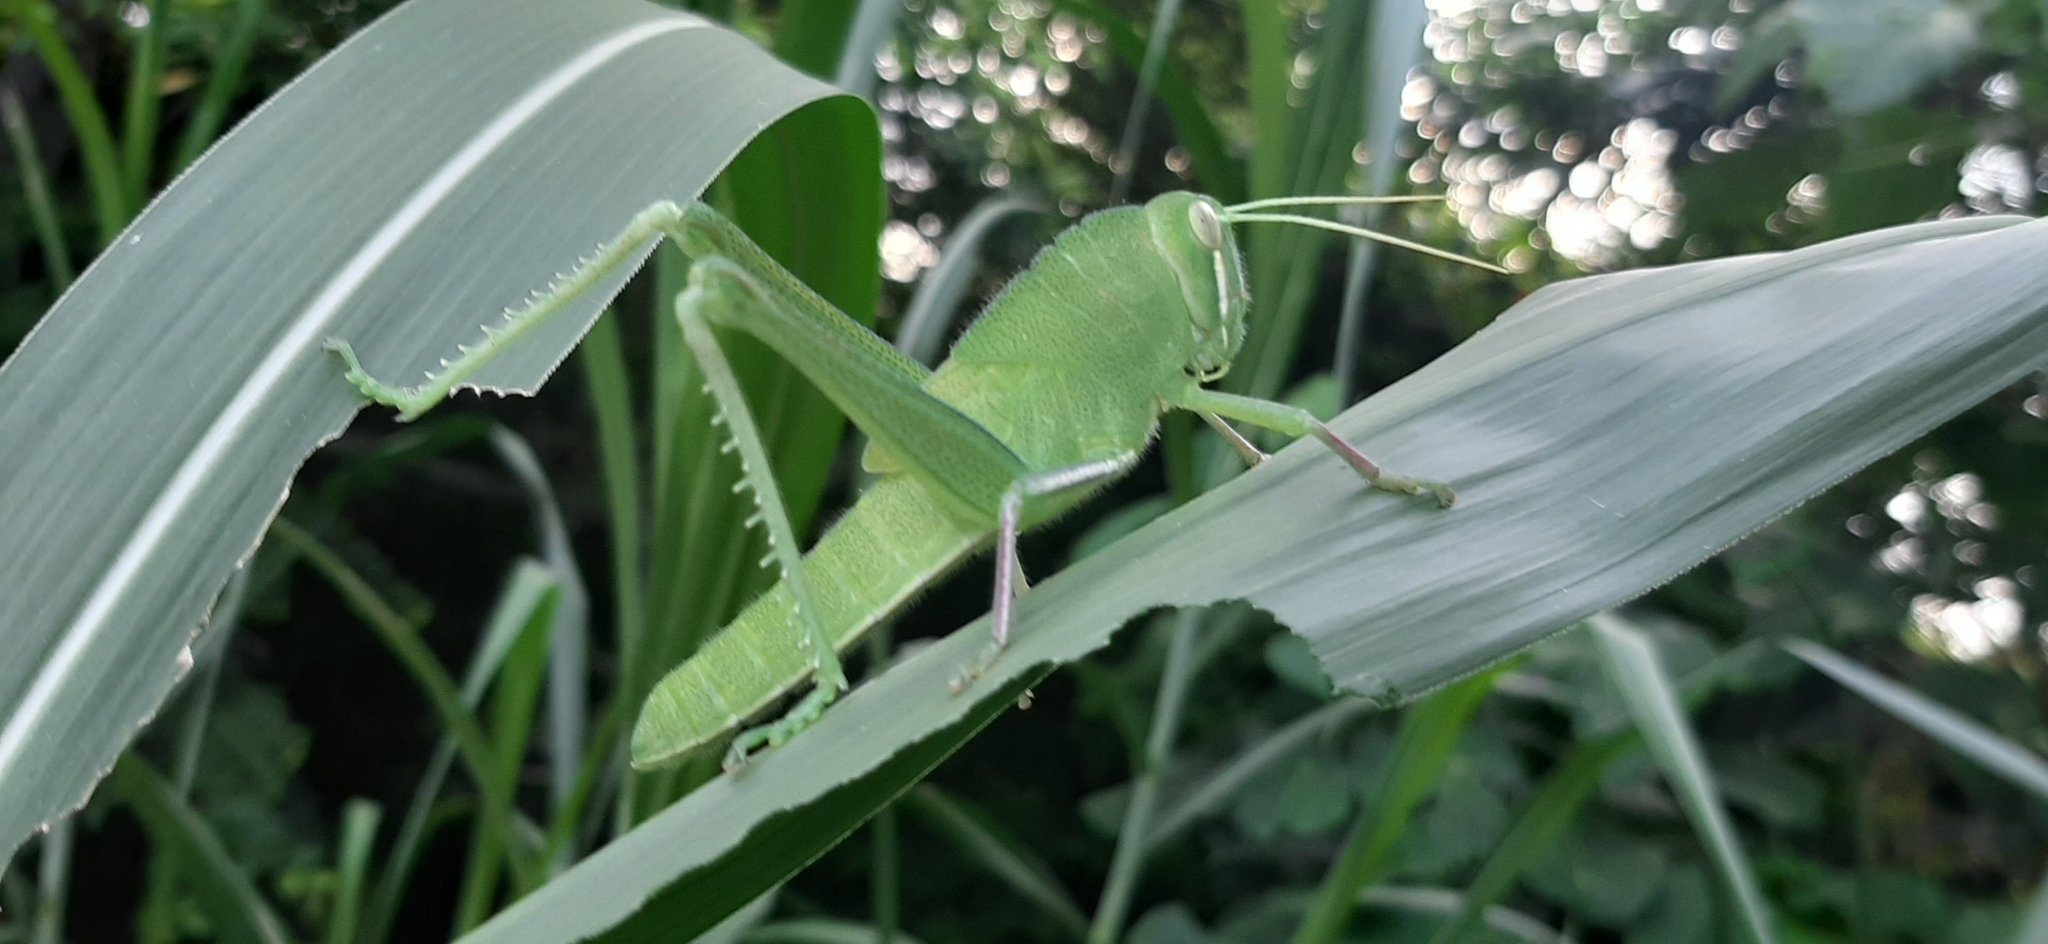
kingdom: Animalia
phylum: Arthropoda
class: Insecta
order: Orthoptera
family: Acrididae
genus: Chondracris
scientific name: Chondracris rosea
